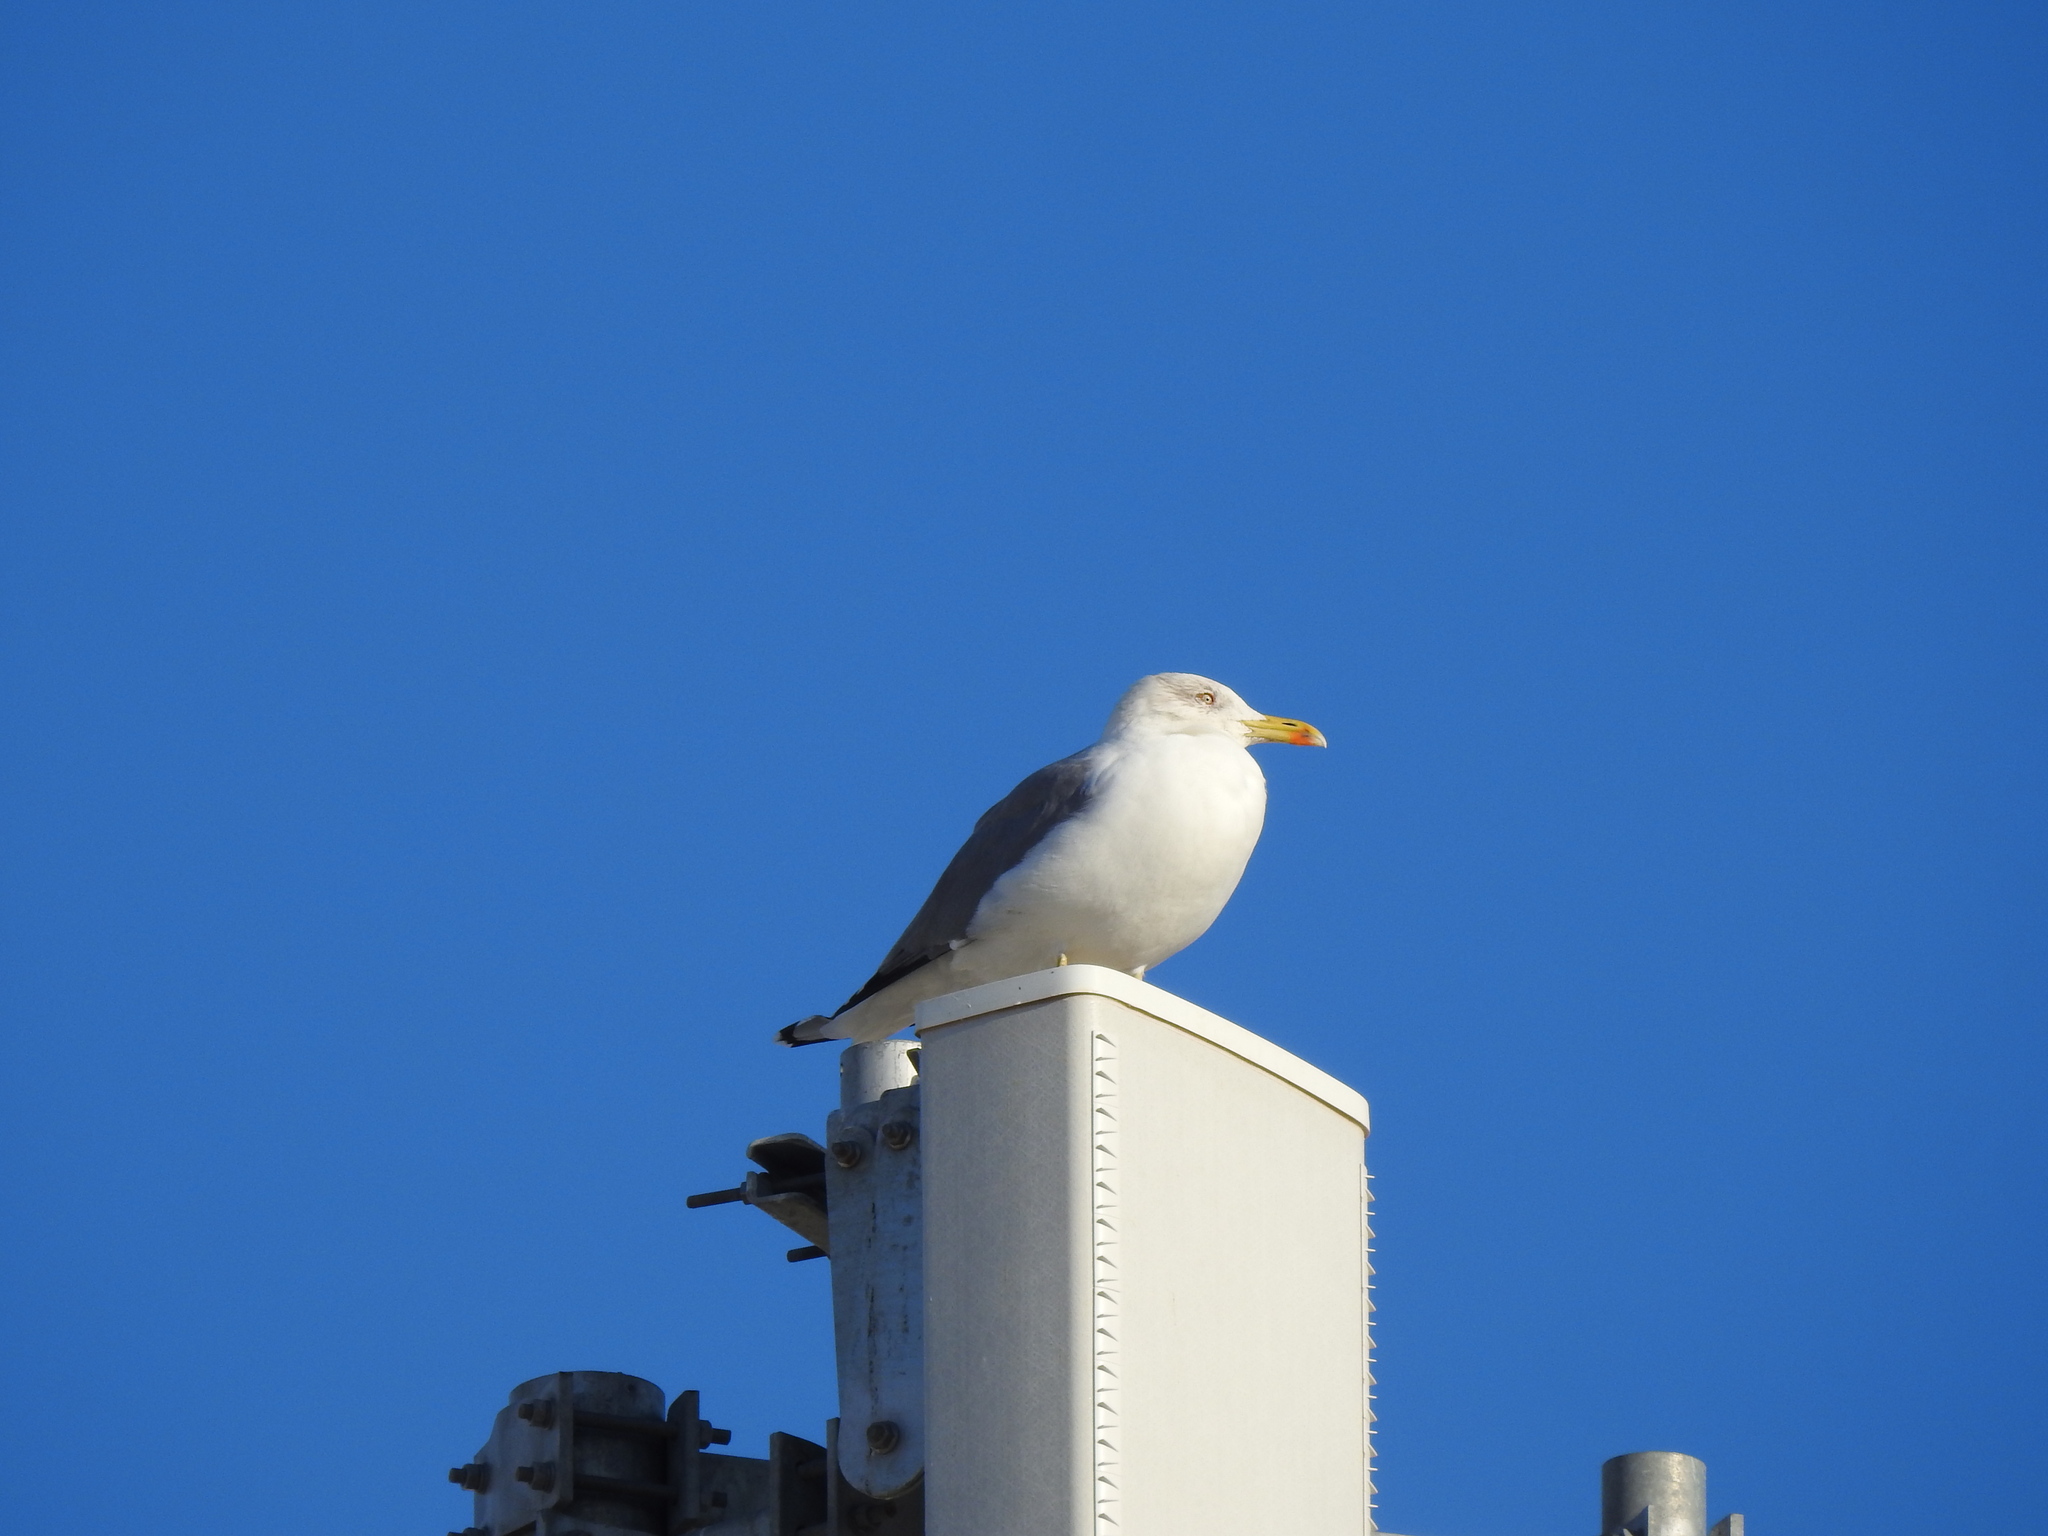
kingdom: Animalia
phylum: Chordata
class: Aves
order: Charadriiformes
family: Laridae
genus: Larus
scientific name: Larus michahellis
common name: Yellow-legged gull
